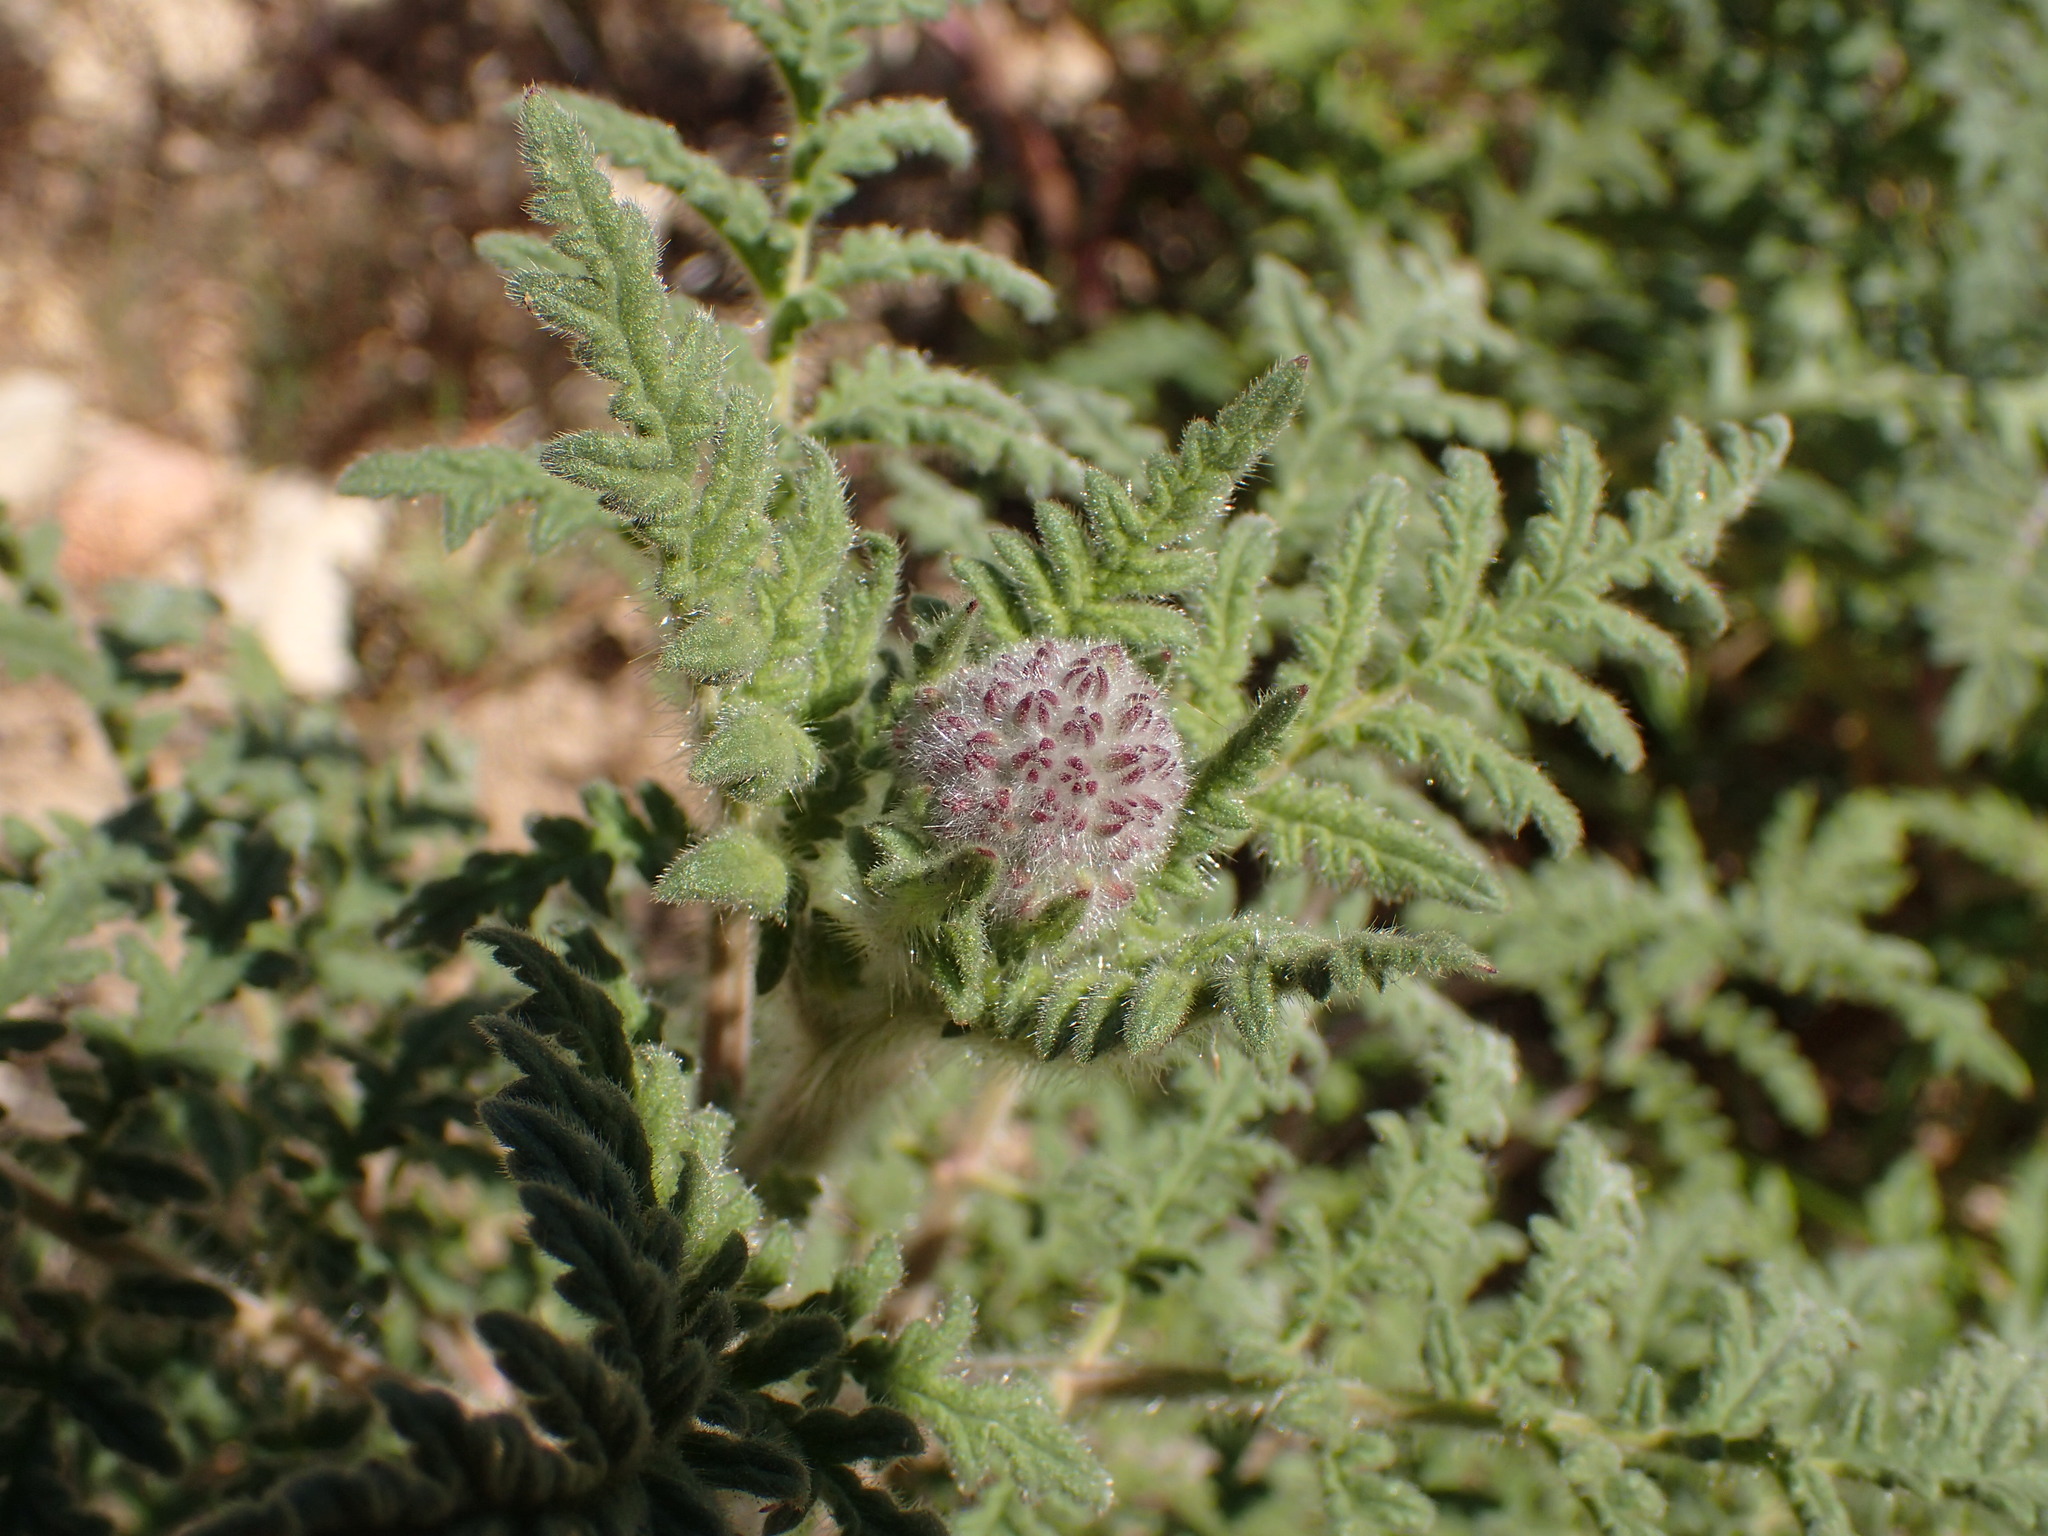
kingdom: Plantae
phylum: Tracheophyta
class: Magnoliopsida
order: Boraginales
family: Hydrophyllaceae
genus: Phacelia
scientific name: Phacelia hubbyi
